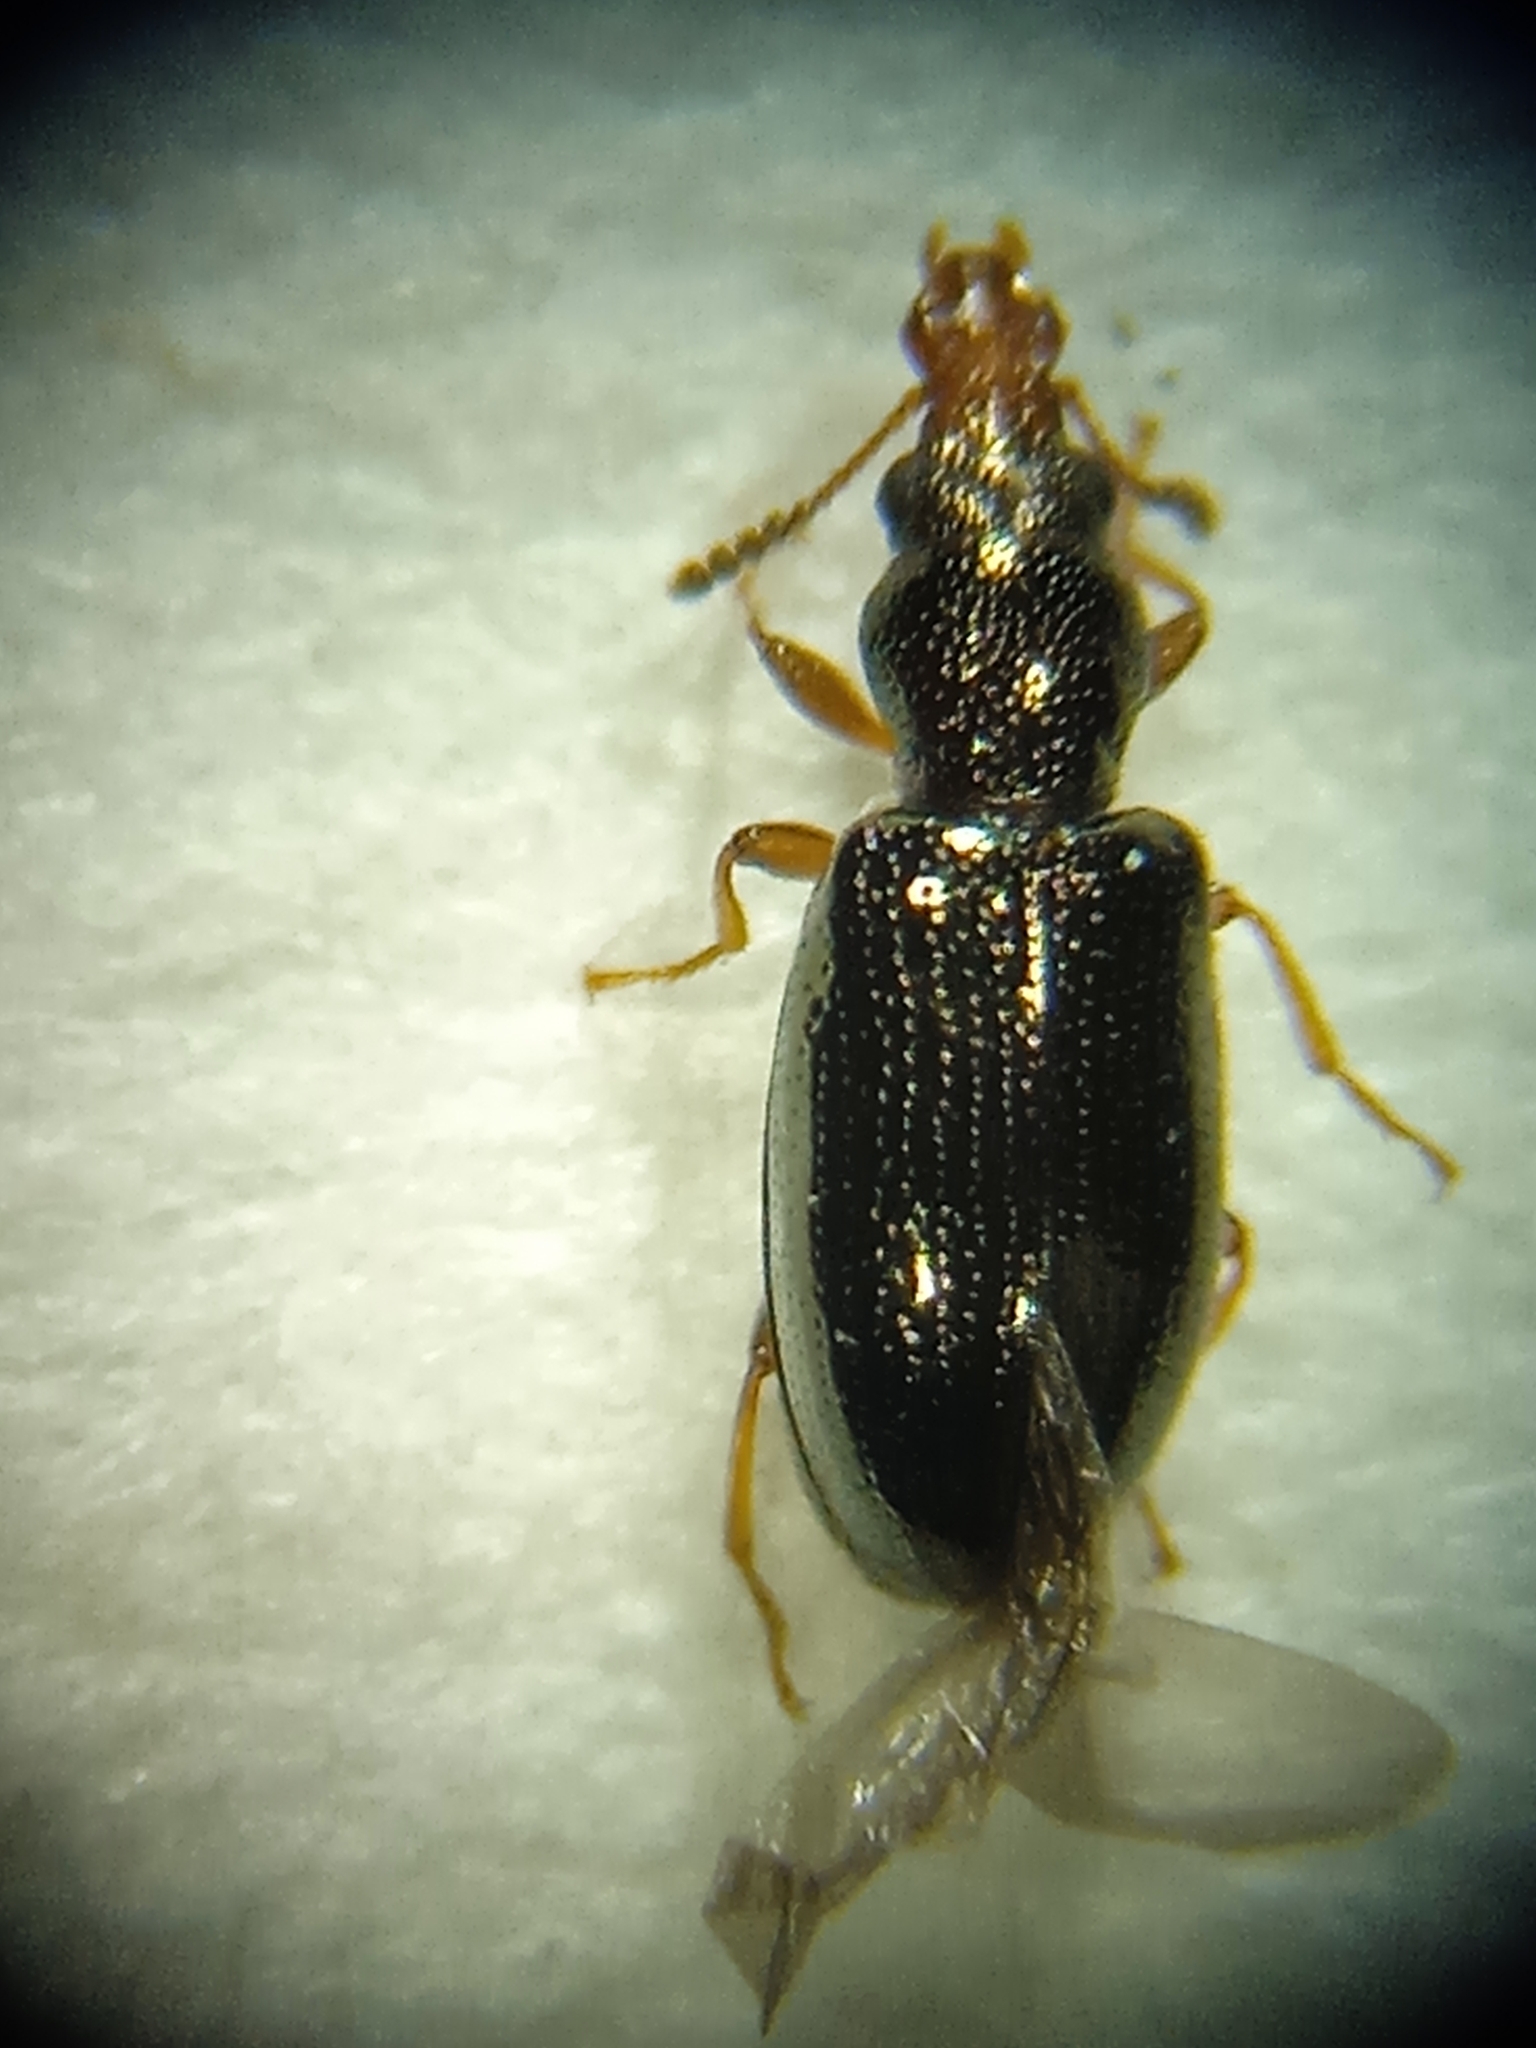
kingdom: Animalia
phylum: Arthropoda
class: Insecta
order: Coleoptera
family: Salpingidae
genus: Salpingus
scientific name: Salpingus planirostris
